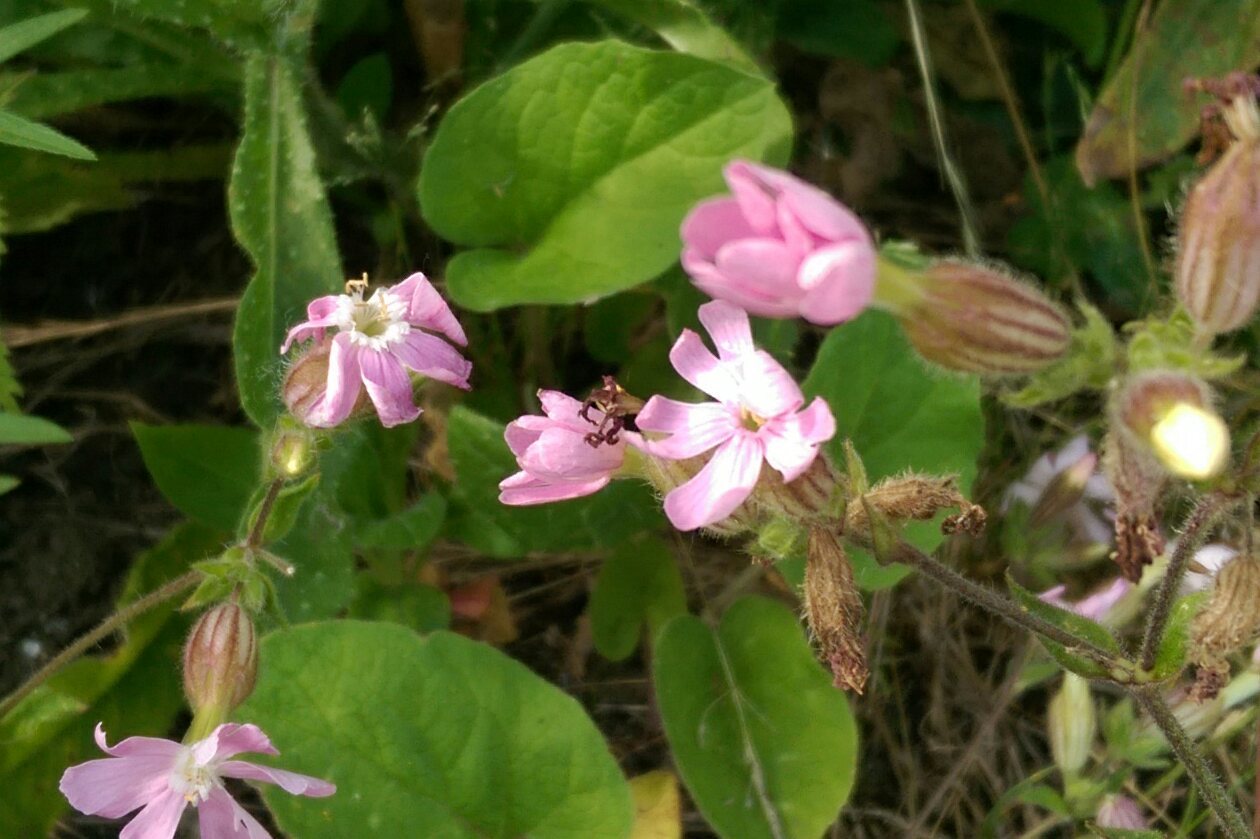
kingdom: Plantae
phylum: Tracheophyta
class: Magnoliopsida
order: Caryophyllales
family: Caryophyllaceae
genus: Silene
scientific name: Silene dioica
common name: Red campion
